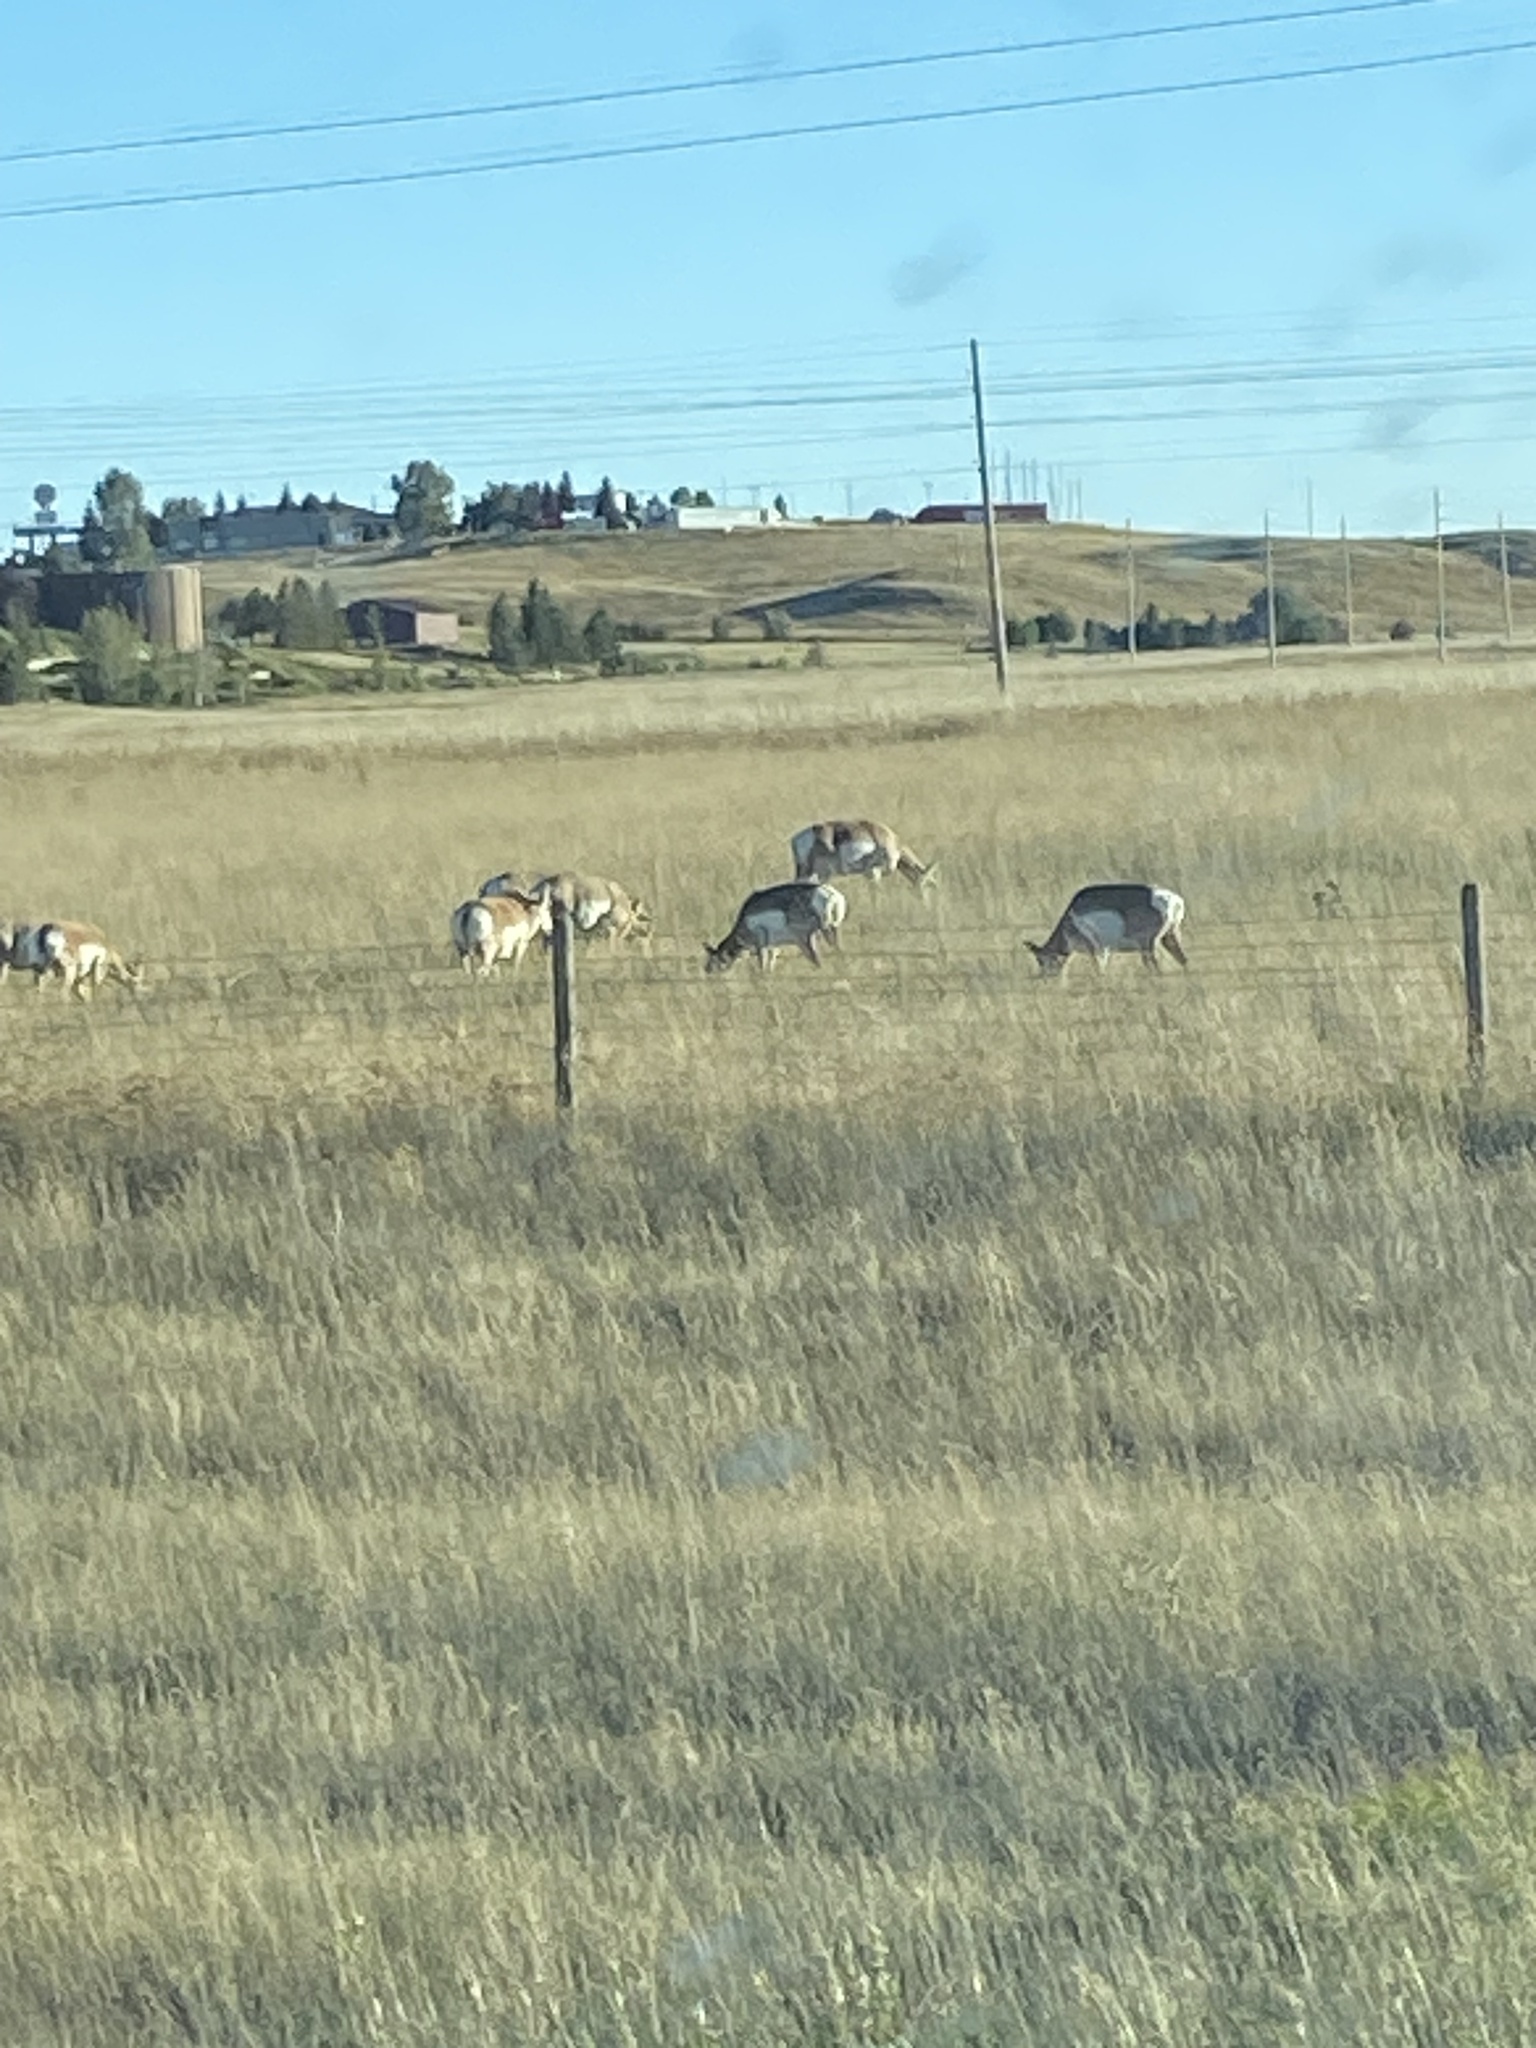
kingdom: Animalia
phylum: Chordata
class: Mammalia
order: Artiodactyla
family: Antilocapridae
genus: Antilocapra
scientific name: Antilocapra americana
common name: Pronghorn
